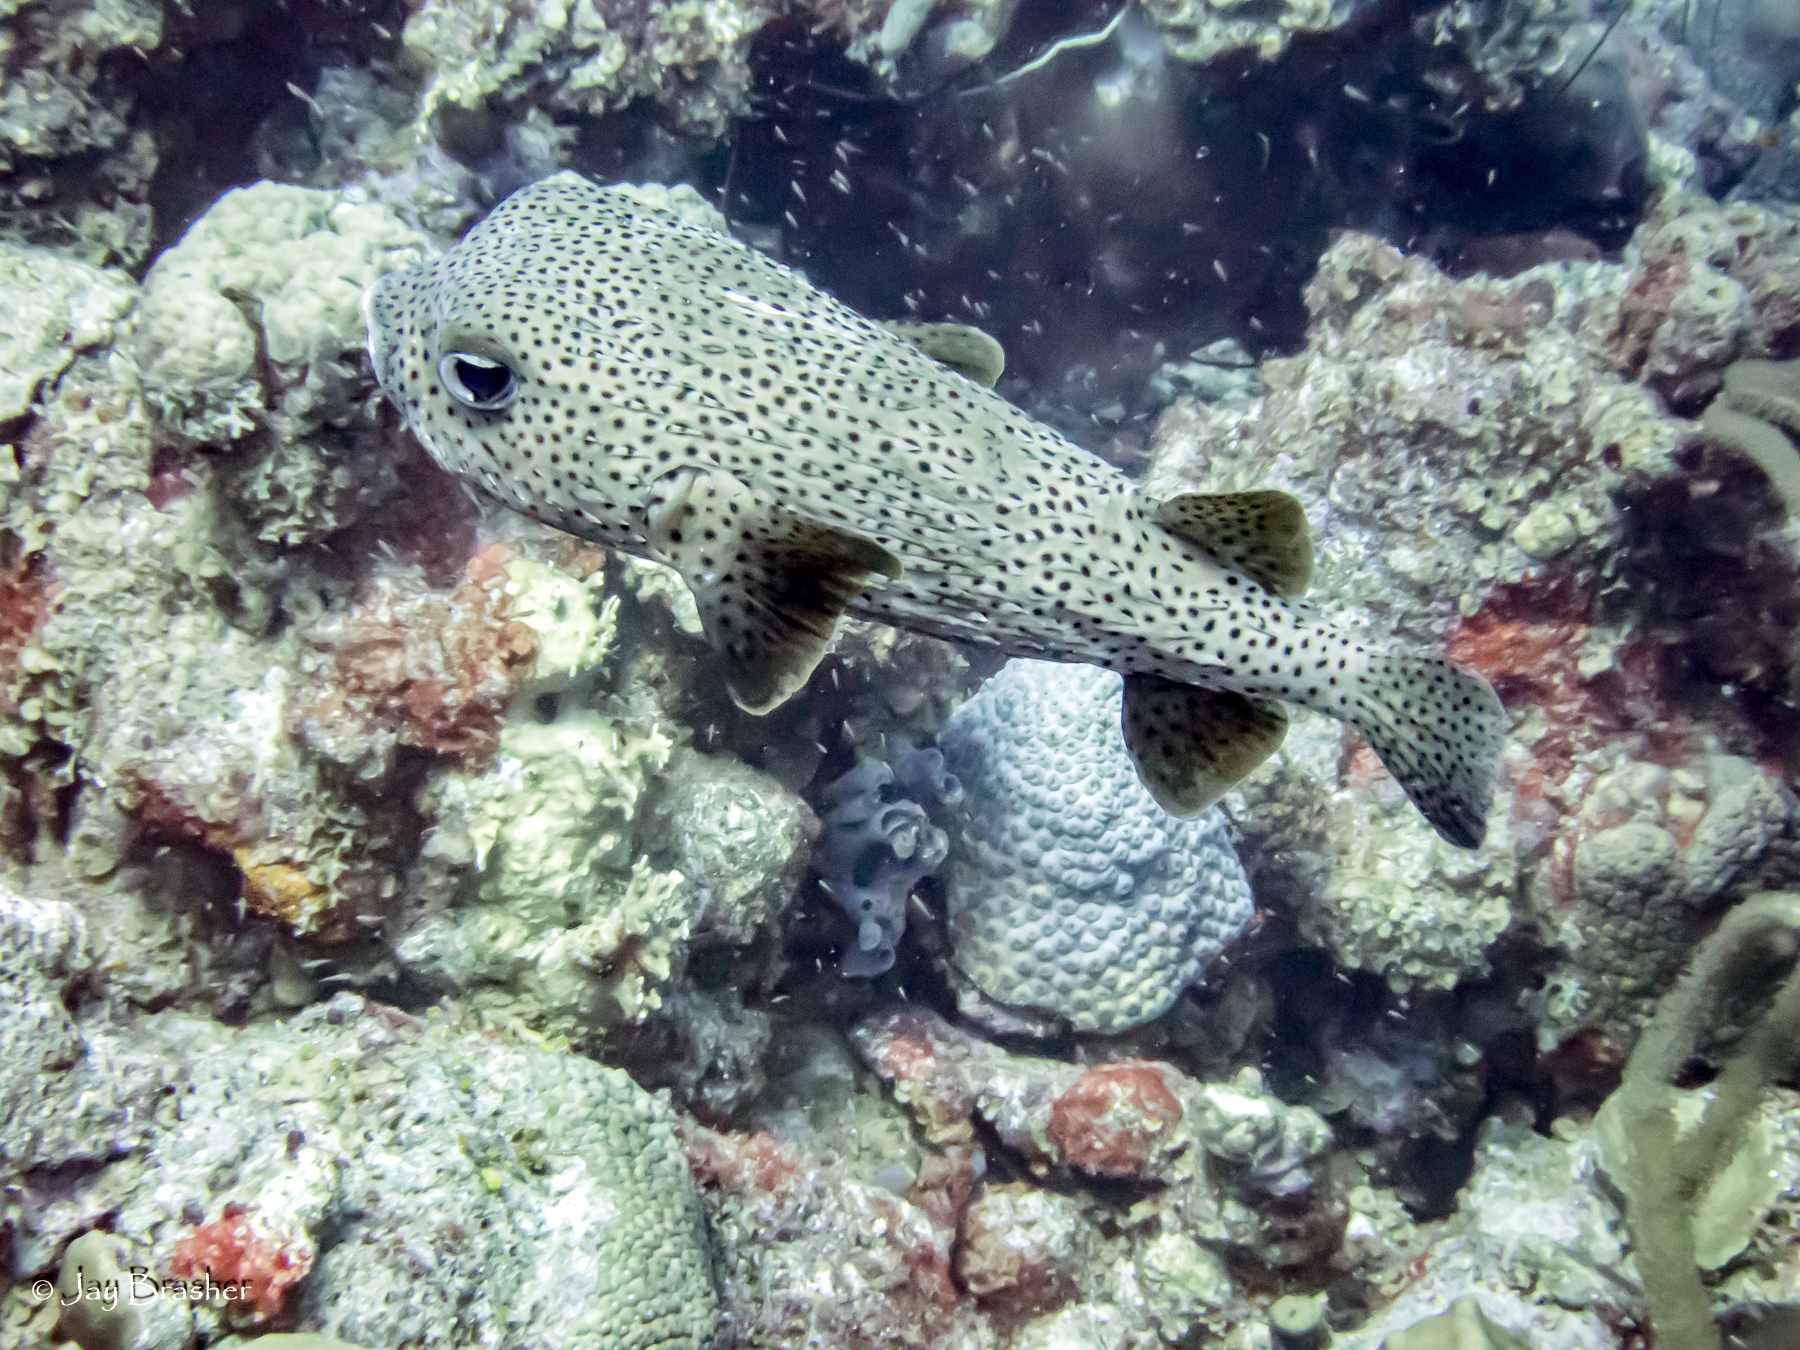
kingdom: Animalia
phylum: Chordata
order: Tetraodontiformes
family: Diodontidae
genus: Diodon
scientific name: Diodon hystrix
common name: Giant porcupinefish
